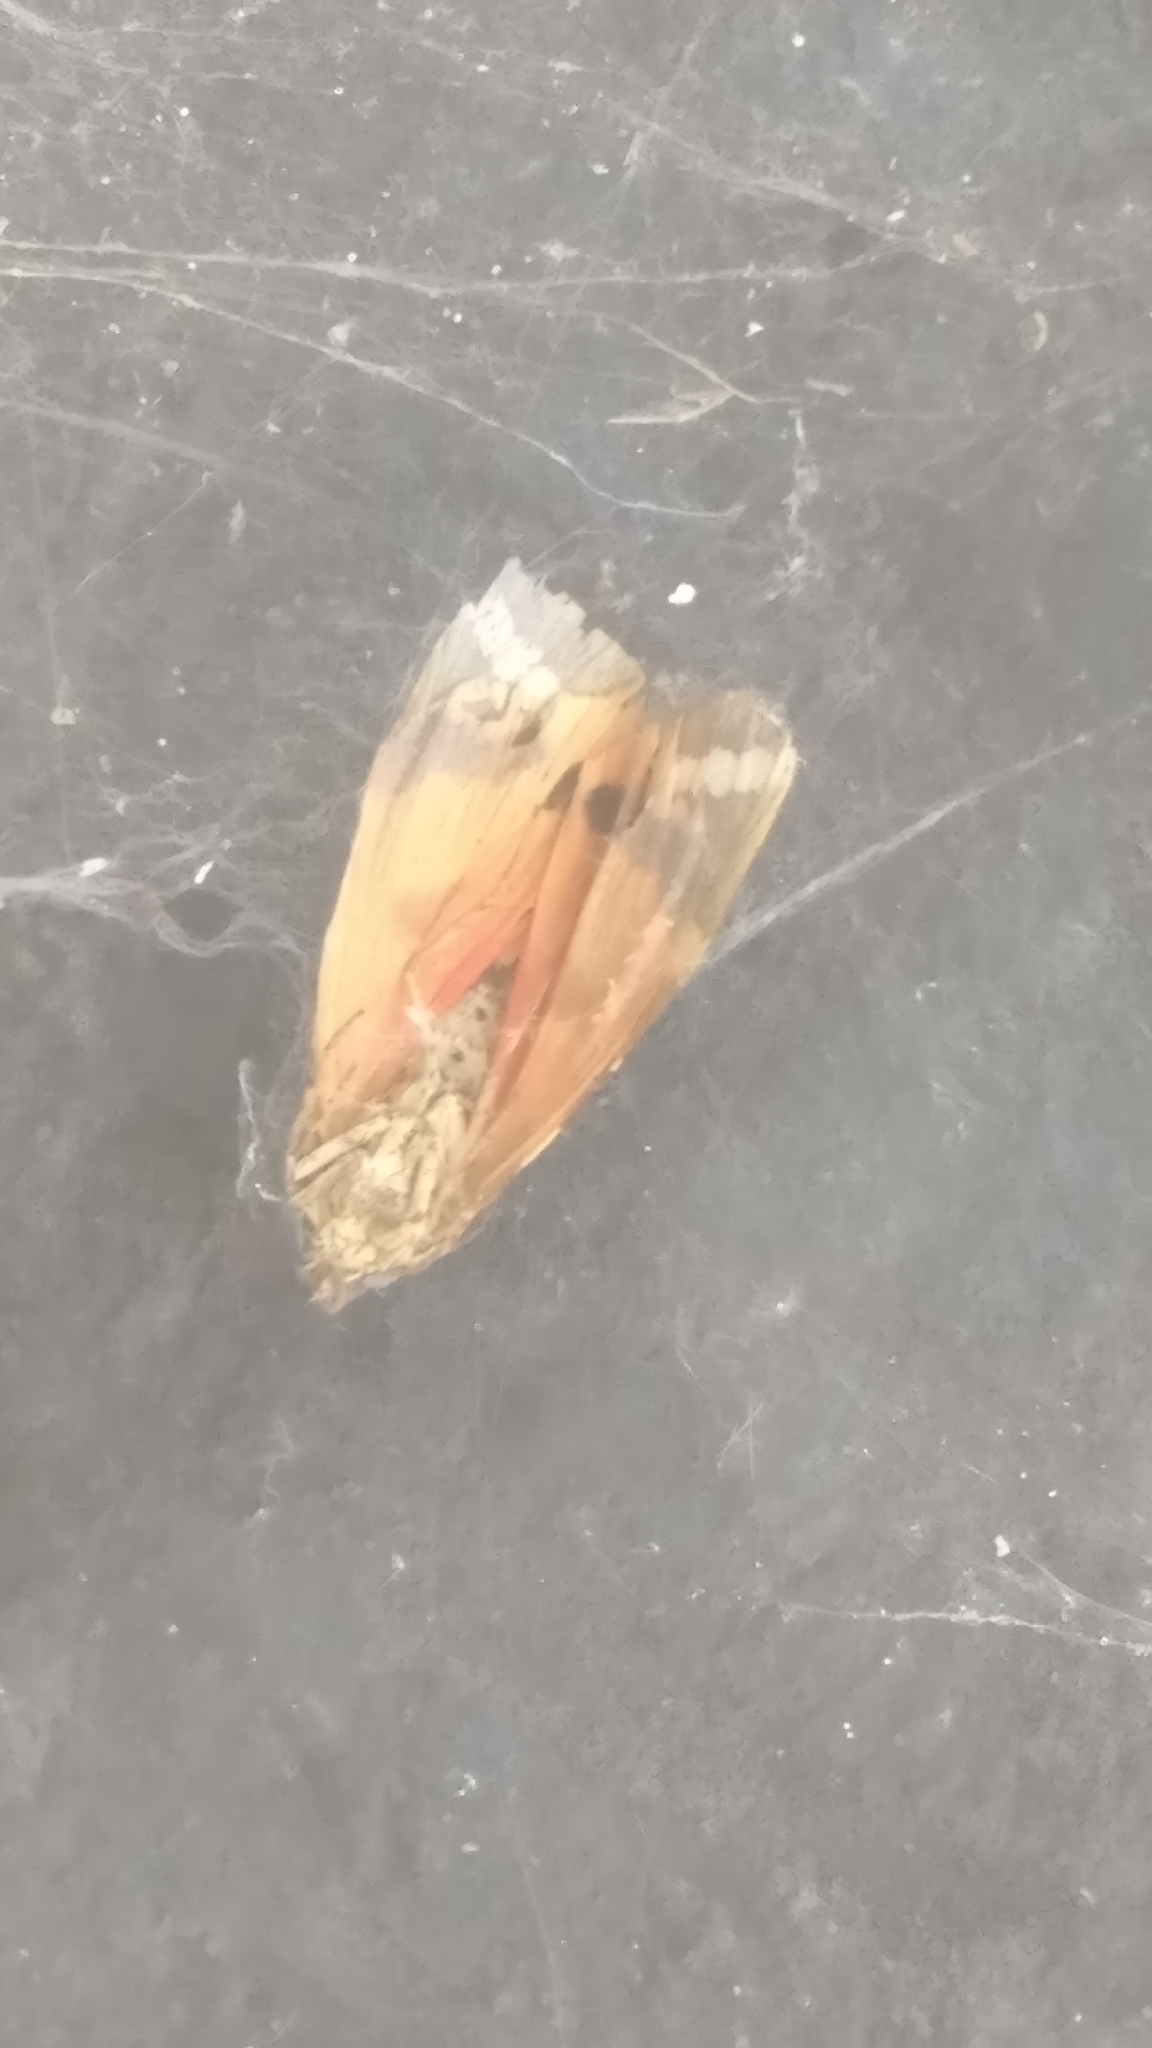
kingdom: Animalia
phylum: Arthropoda
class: Insecta
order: Lepidoptera
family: Erebidae
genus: Euplagia
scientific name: Euplagia quadripunctaria
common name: Jersey tiger
